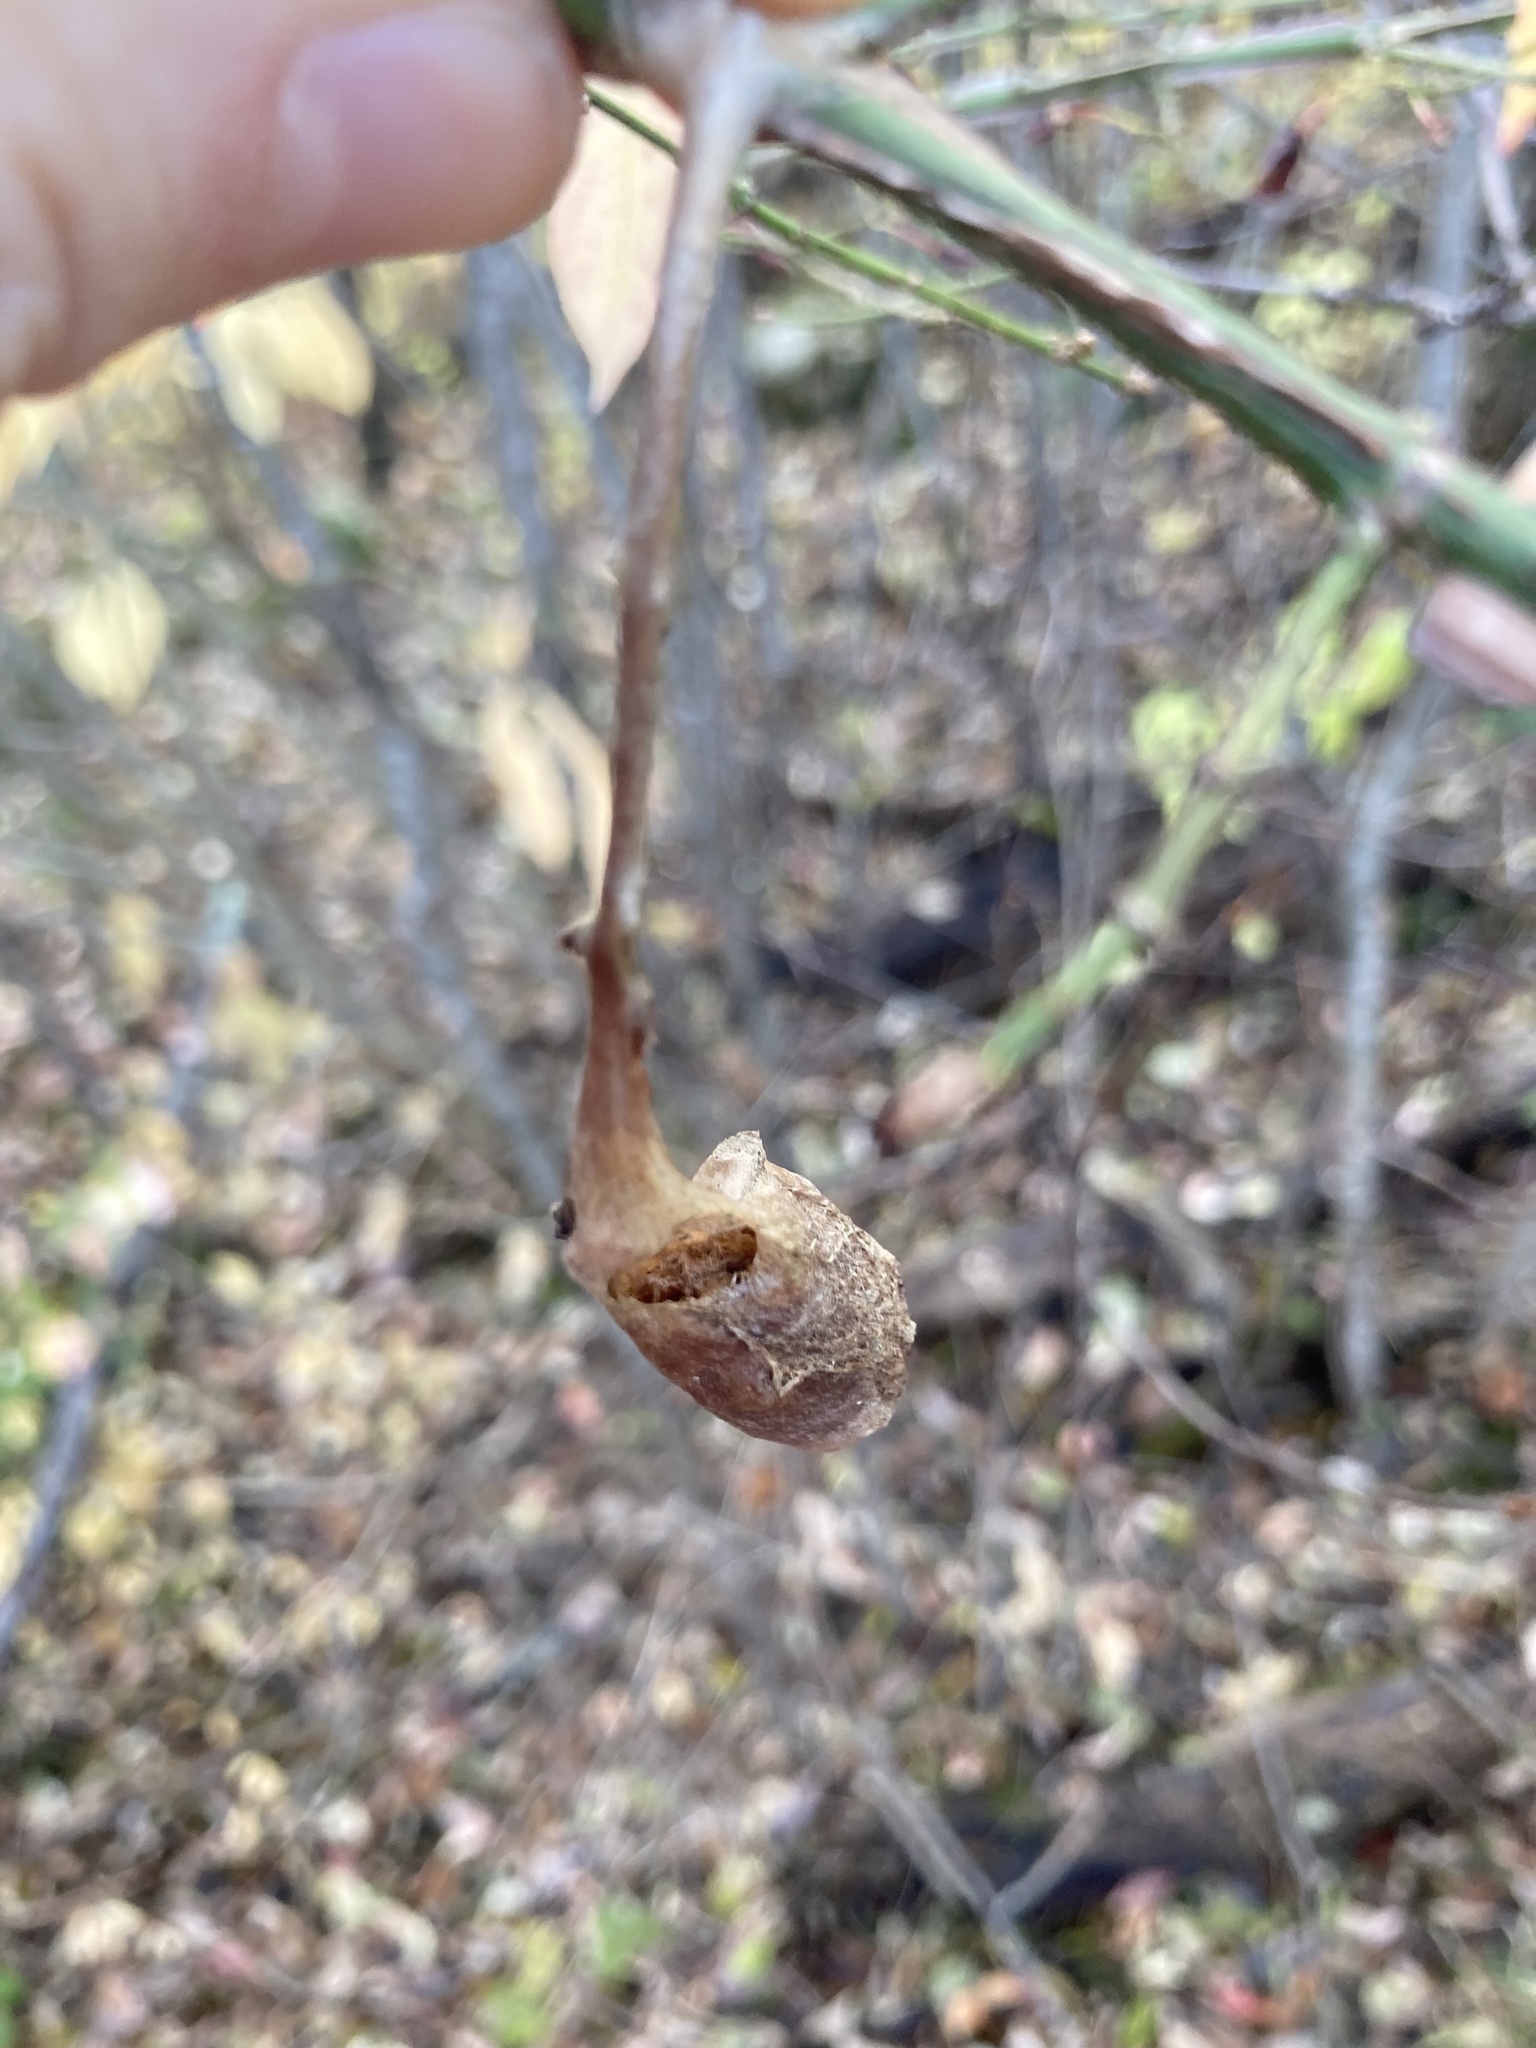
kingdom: Animalia
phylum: Arthropoda
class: Insecta
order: Lepidoptera
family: Saturniidae
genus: Callosamia
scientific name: Callosamia promethea
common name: Promethea silkmoth
